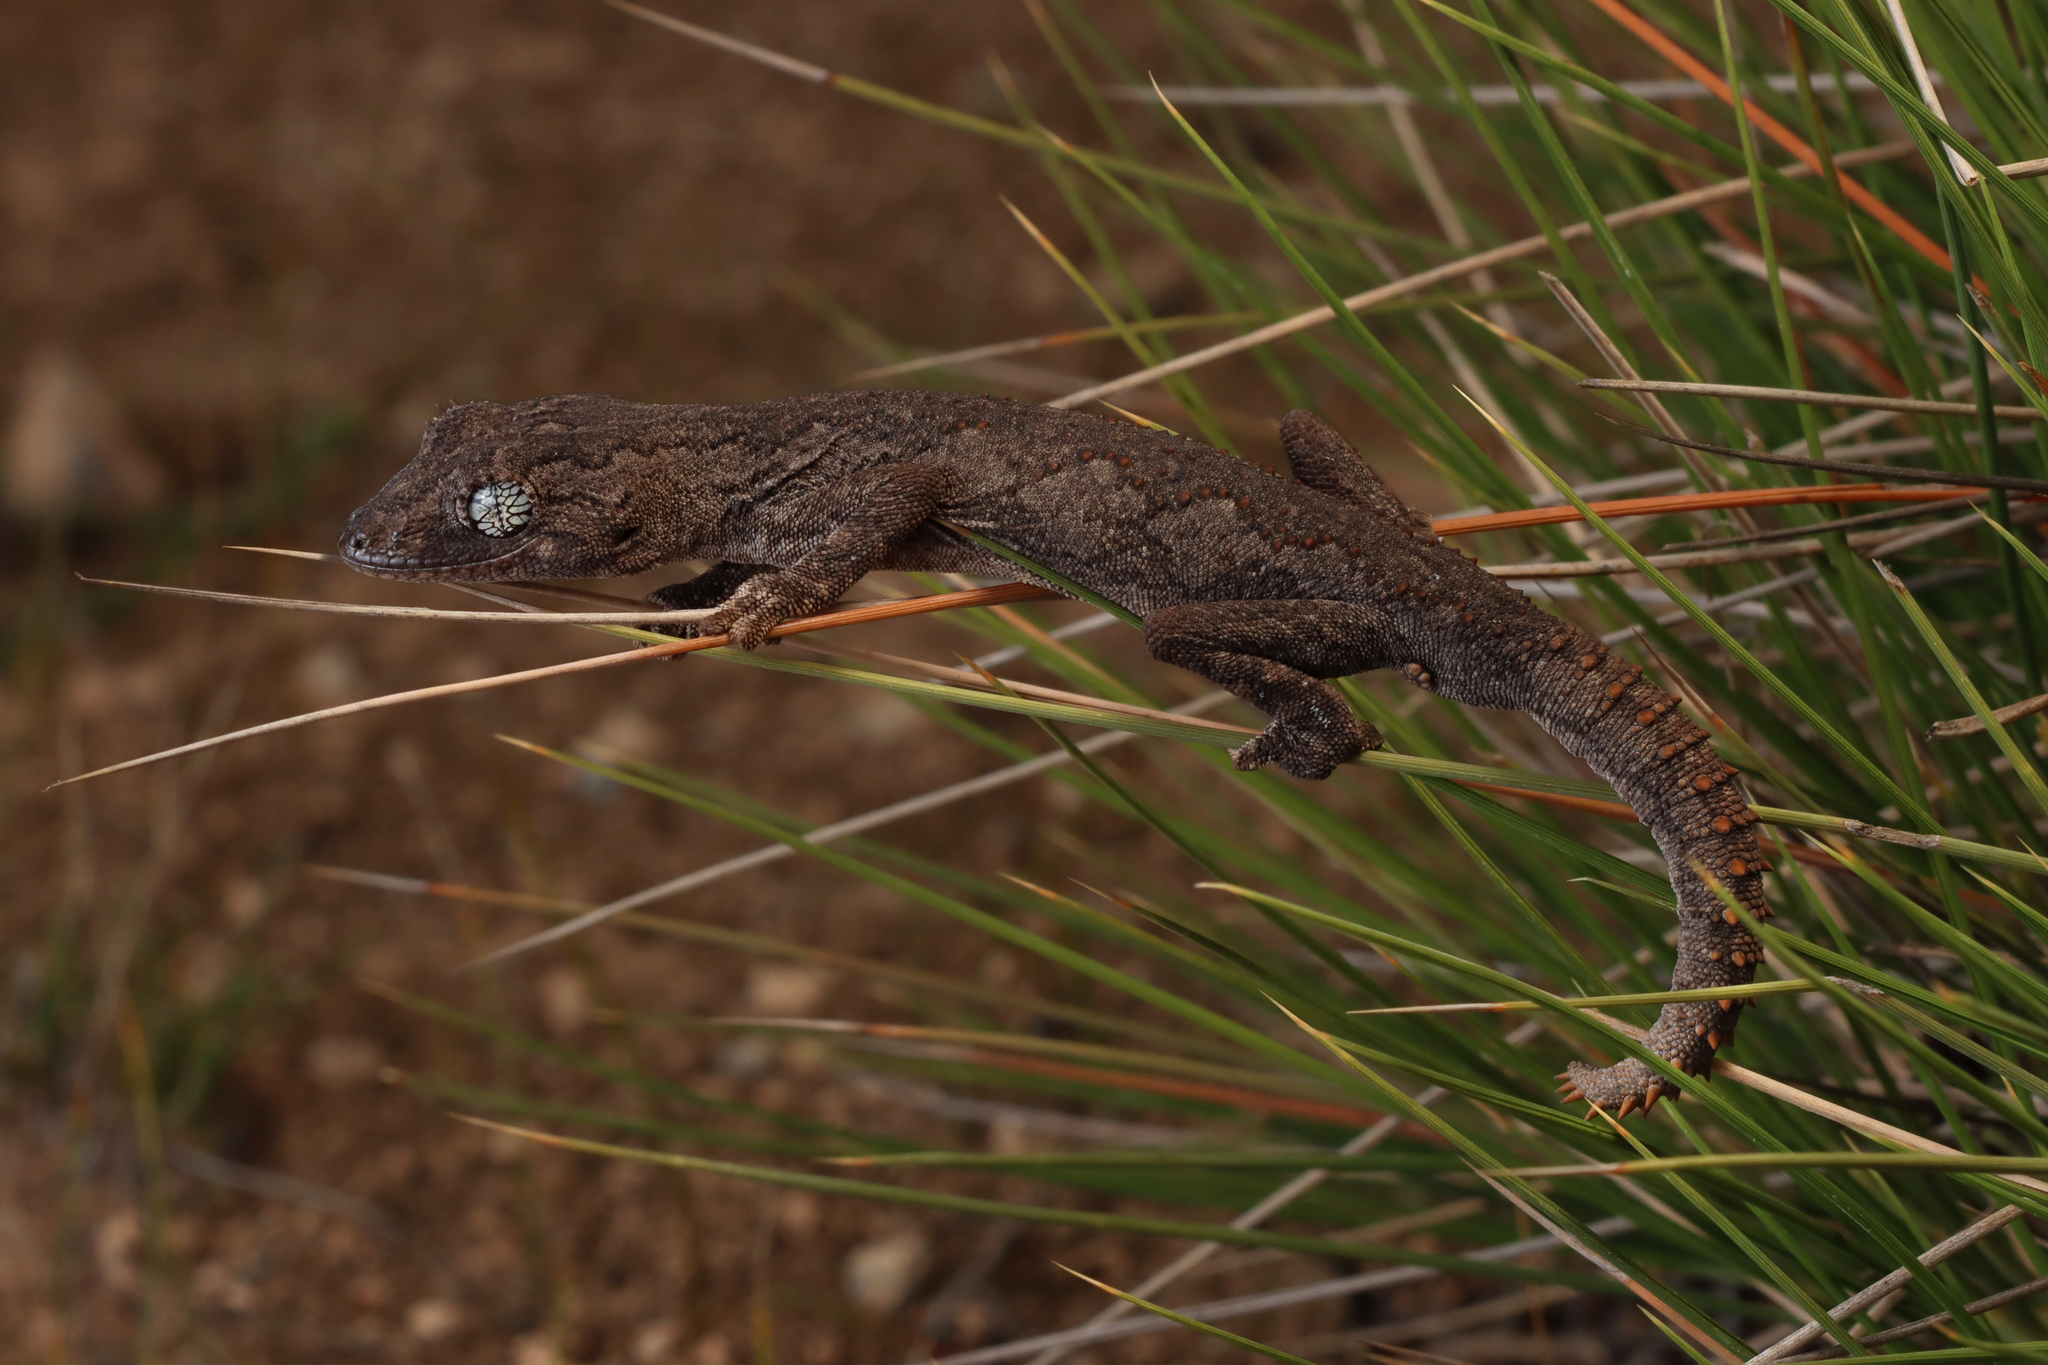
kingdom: Animalia
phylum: Chordata
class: Squamata
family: Diplodactylidae
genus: Strophurus
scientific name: Strophurus assimilis
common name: Goldfields spiny-tailed gecko
